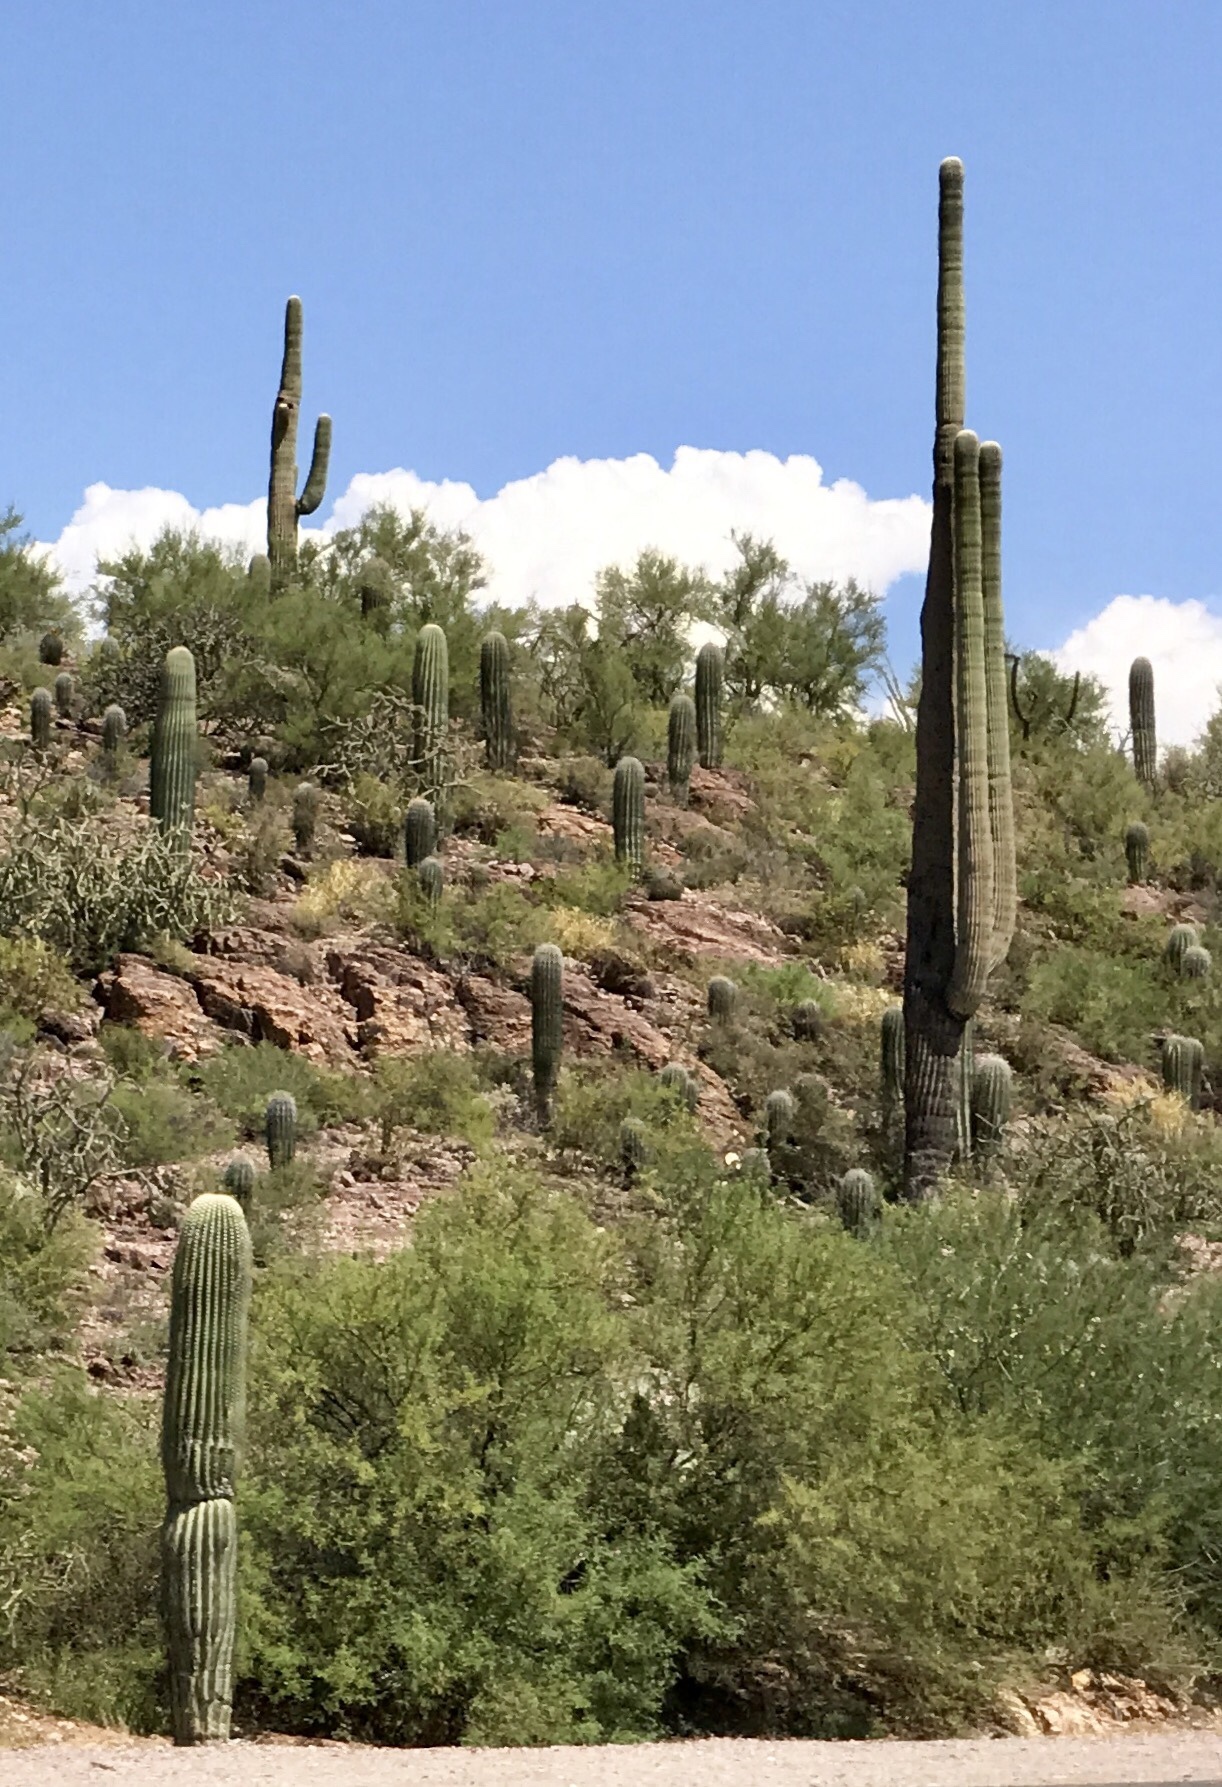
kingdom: Plantae
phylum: Tracheophyta
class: Magnoliopsida
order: Caryophyllales
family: Cactaceae
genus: Carnegiea
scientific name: Carnegiea gigantea
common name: Saguaro
